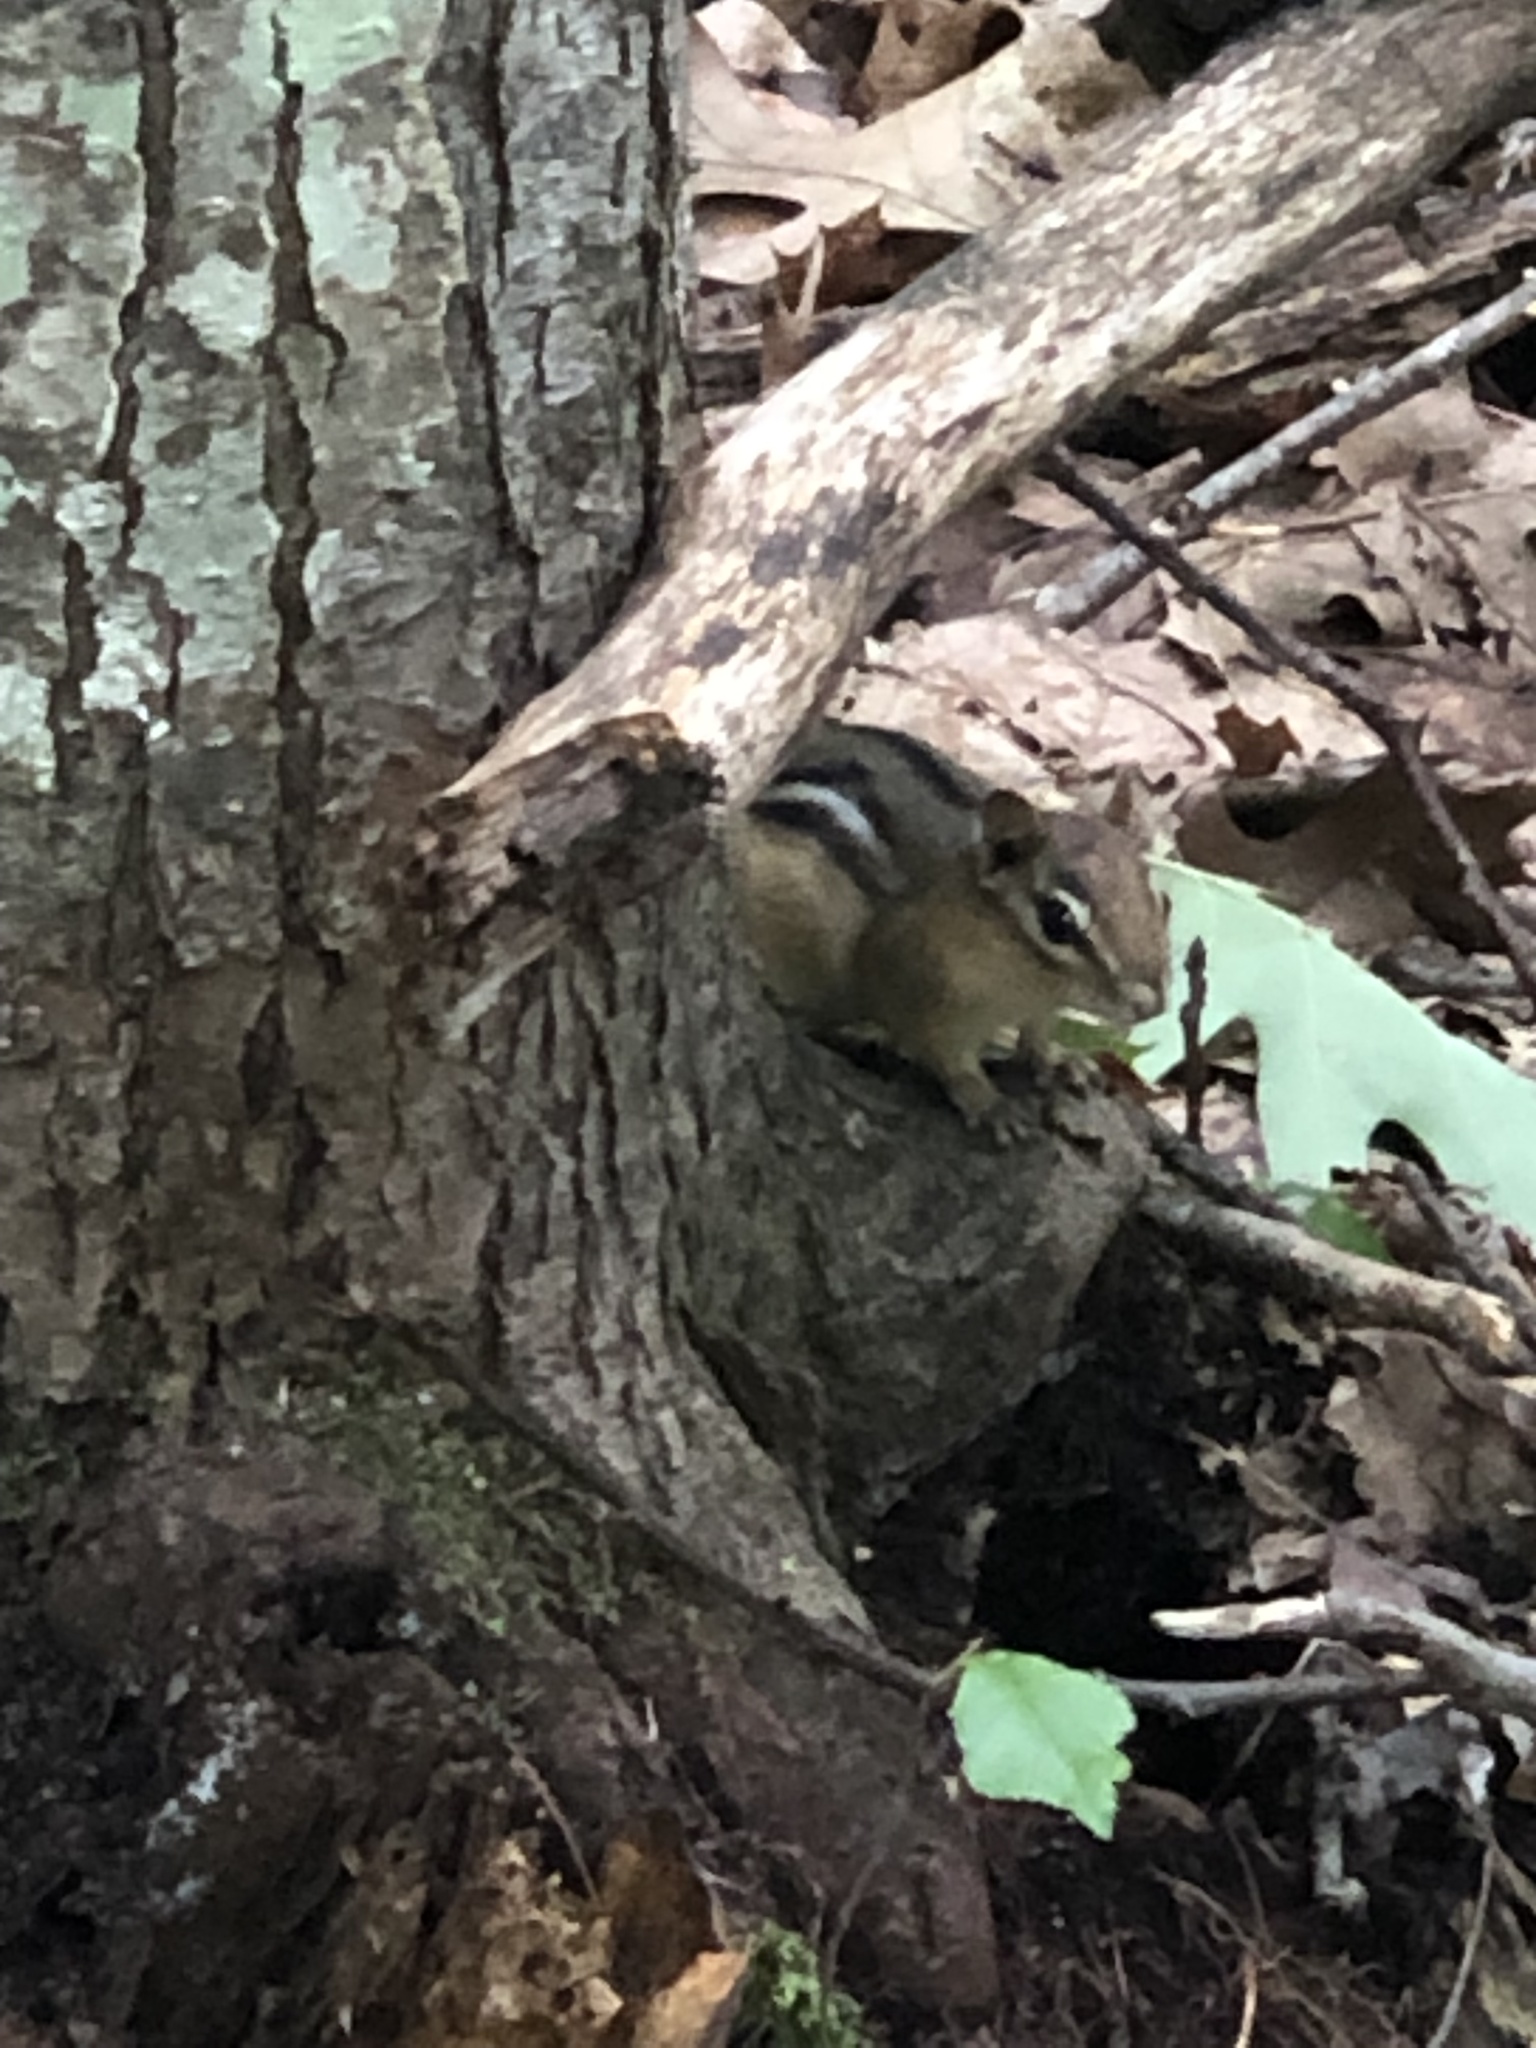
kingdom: Animalia
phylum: Chordata
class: Mammalia
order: Rodentia
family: Sciuridae
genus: Tamias
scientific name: Tamias striatus
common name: Eastern chipmunk
